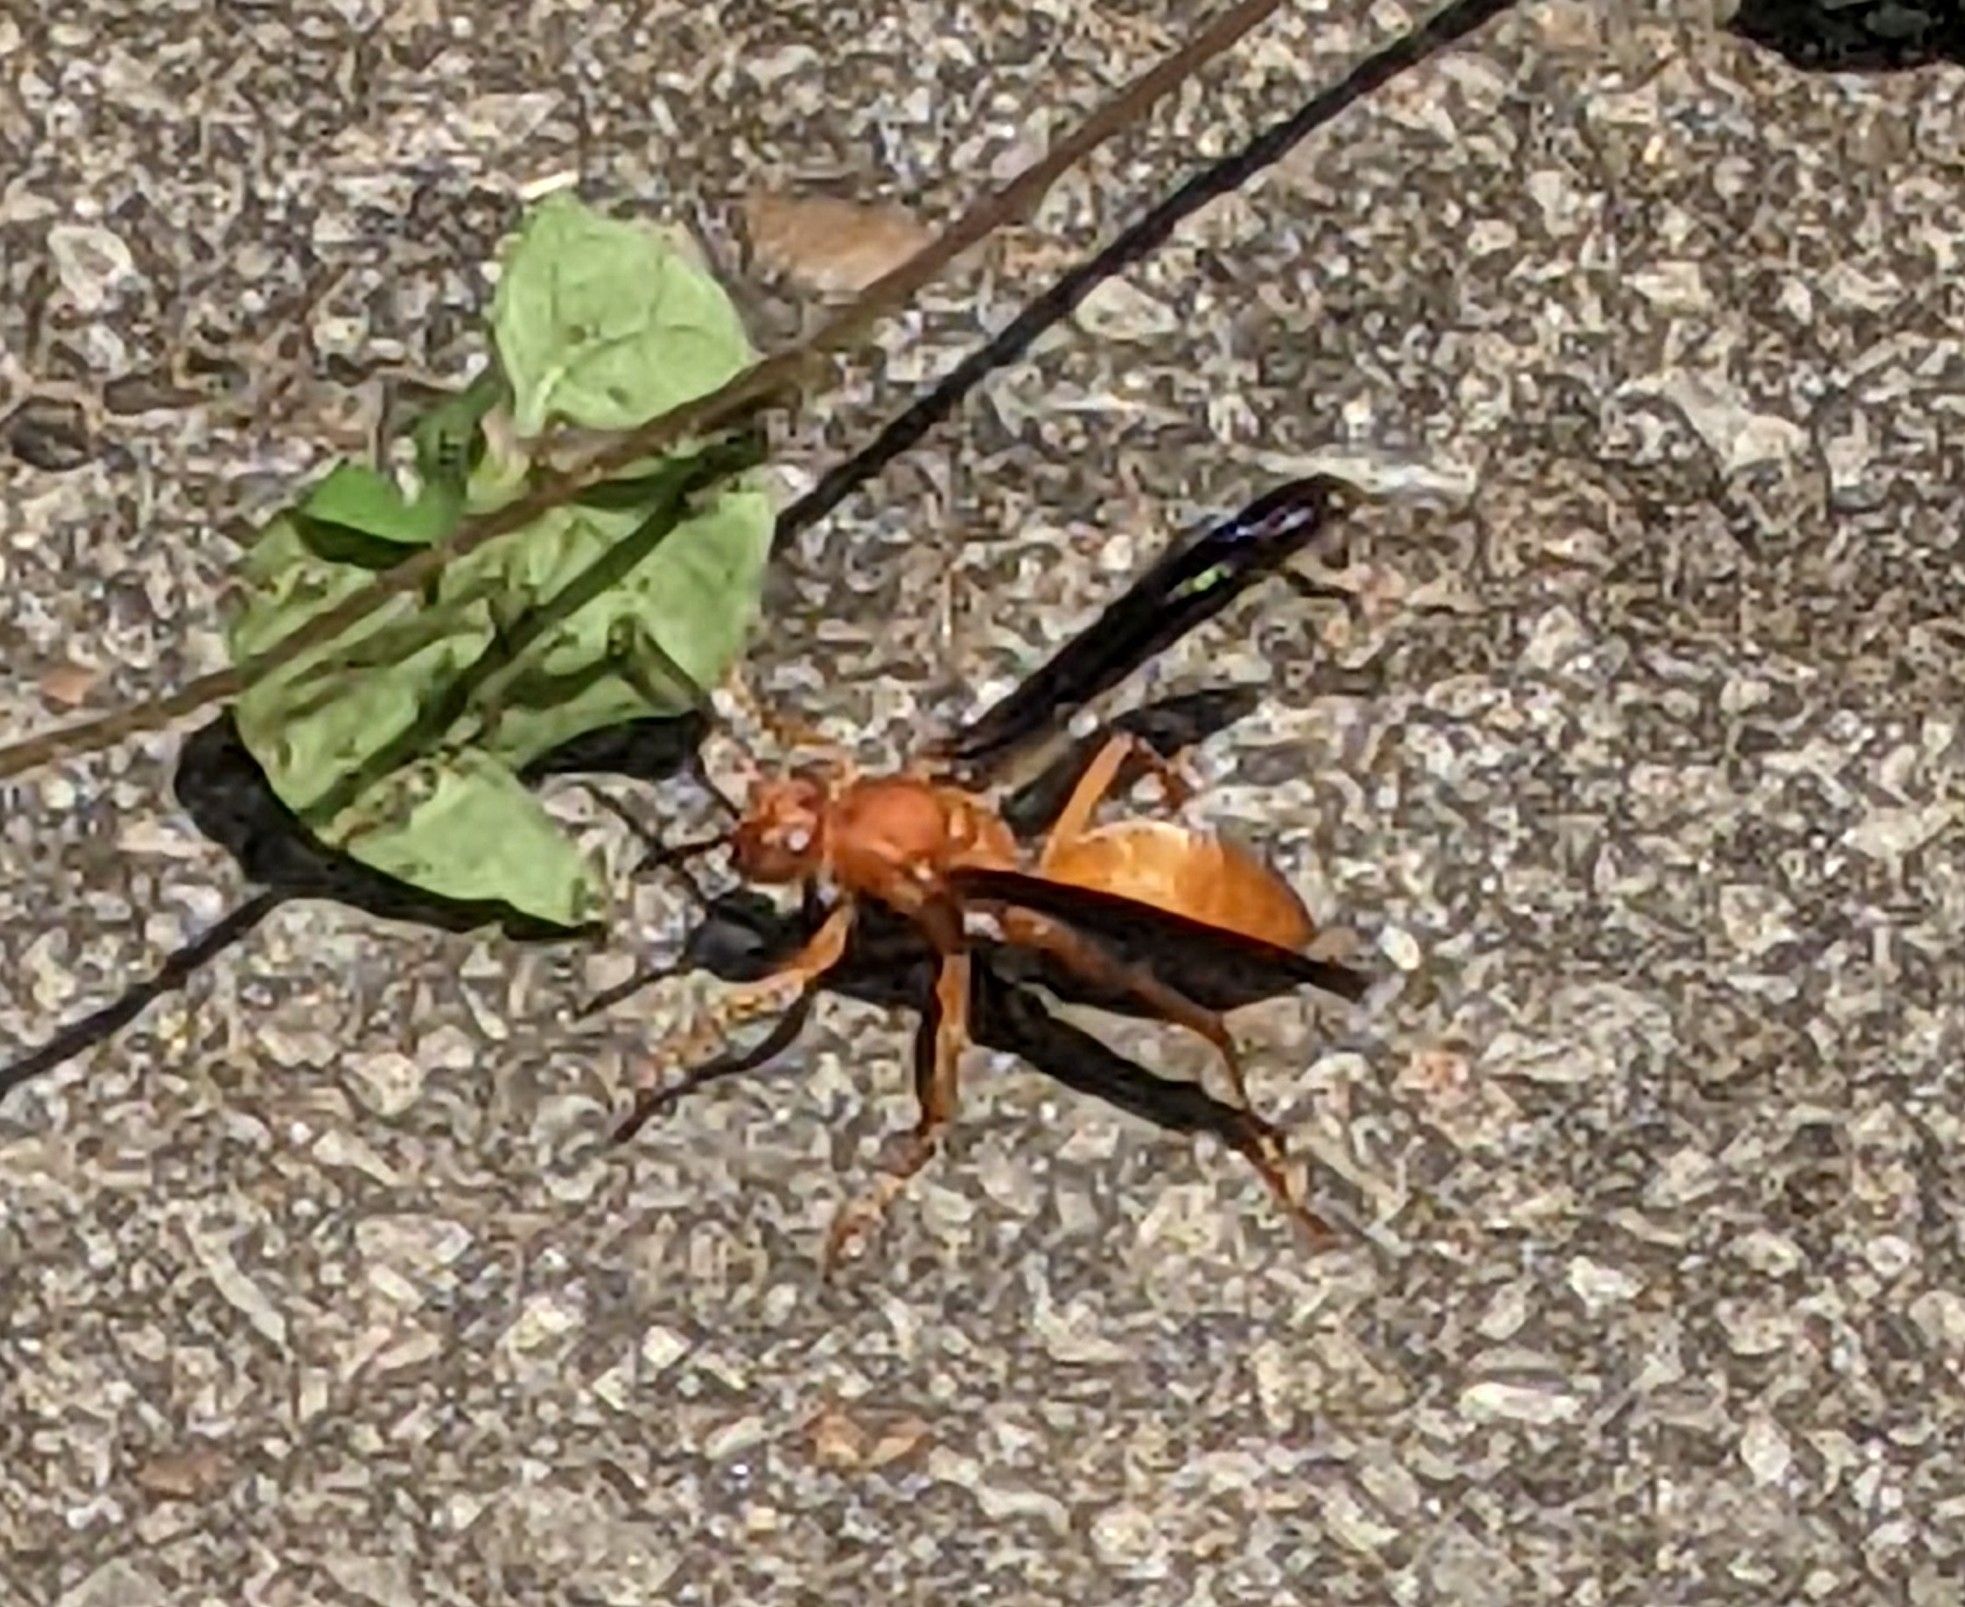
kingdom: Animalia
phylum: Arthropoda
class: Insecta
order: Hymenoptera
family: Vespidae
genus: Fuscopolistes
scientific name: Fuscopolistes
